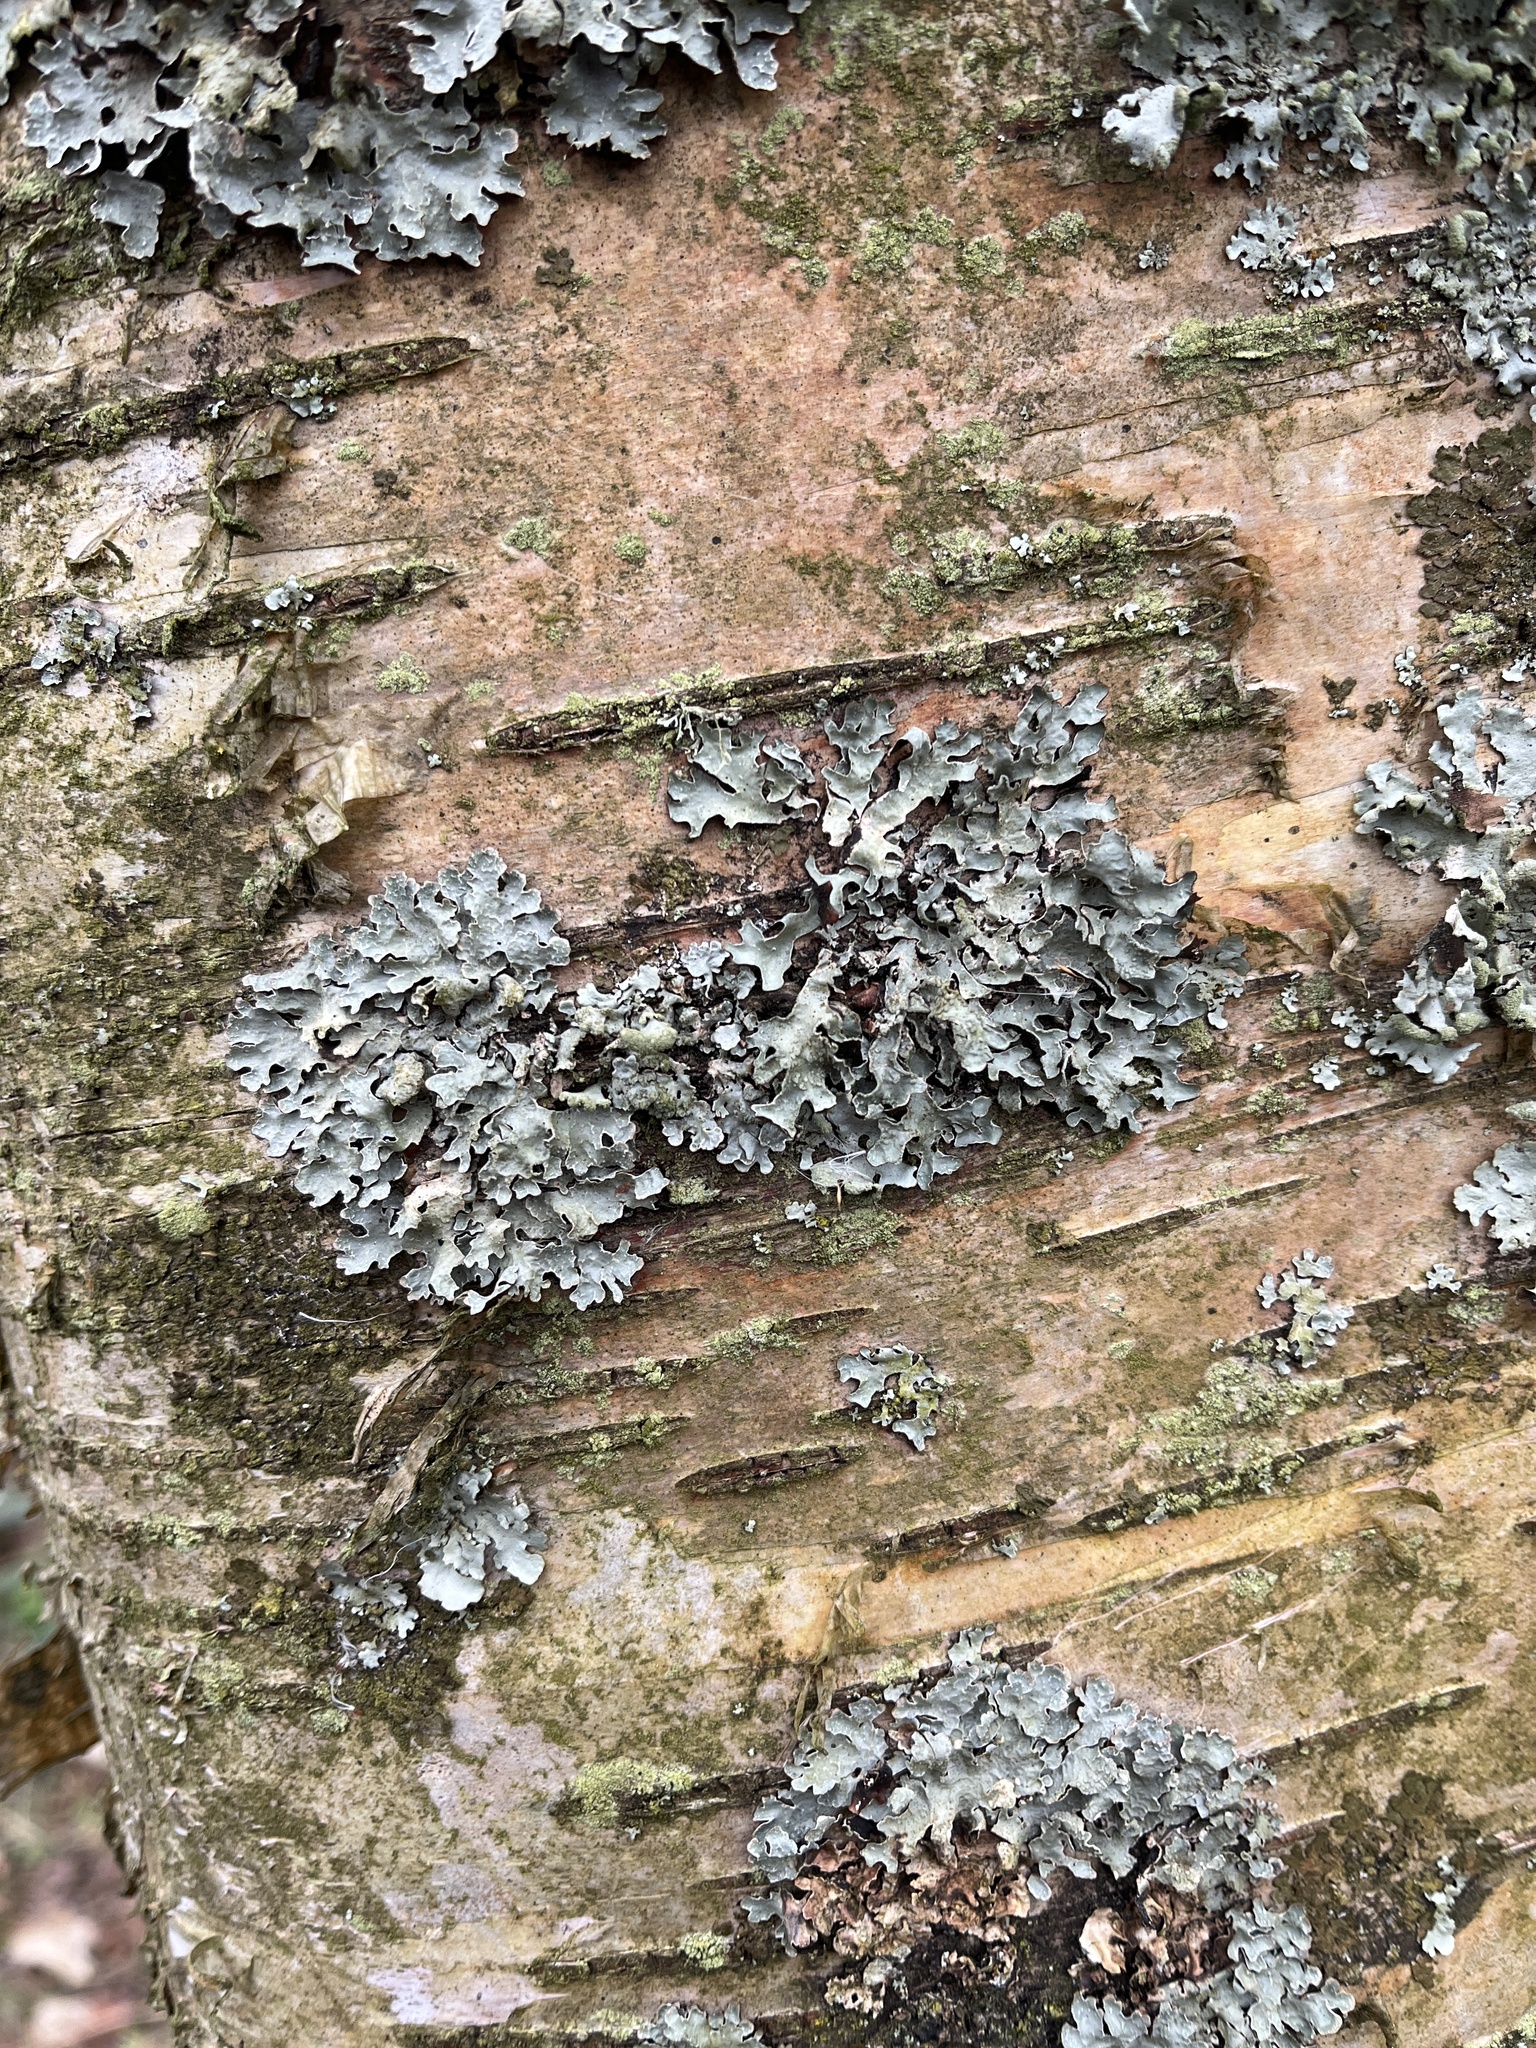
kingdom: Fungi
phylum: Ascomycota
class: Lecanoromycetes
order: Lecanorales
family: Parmeliaceae
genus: Parmelia
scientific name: Parmelia sulcata
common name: Netted shield lichen
